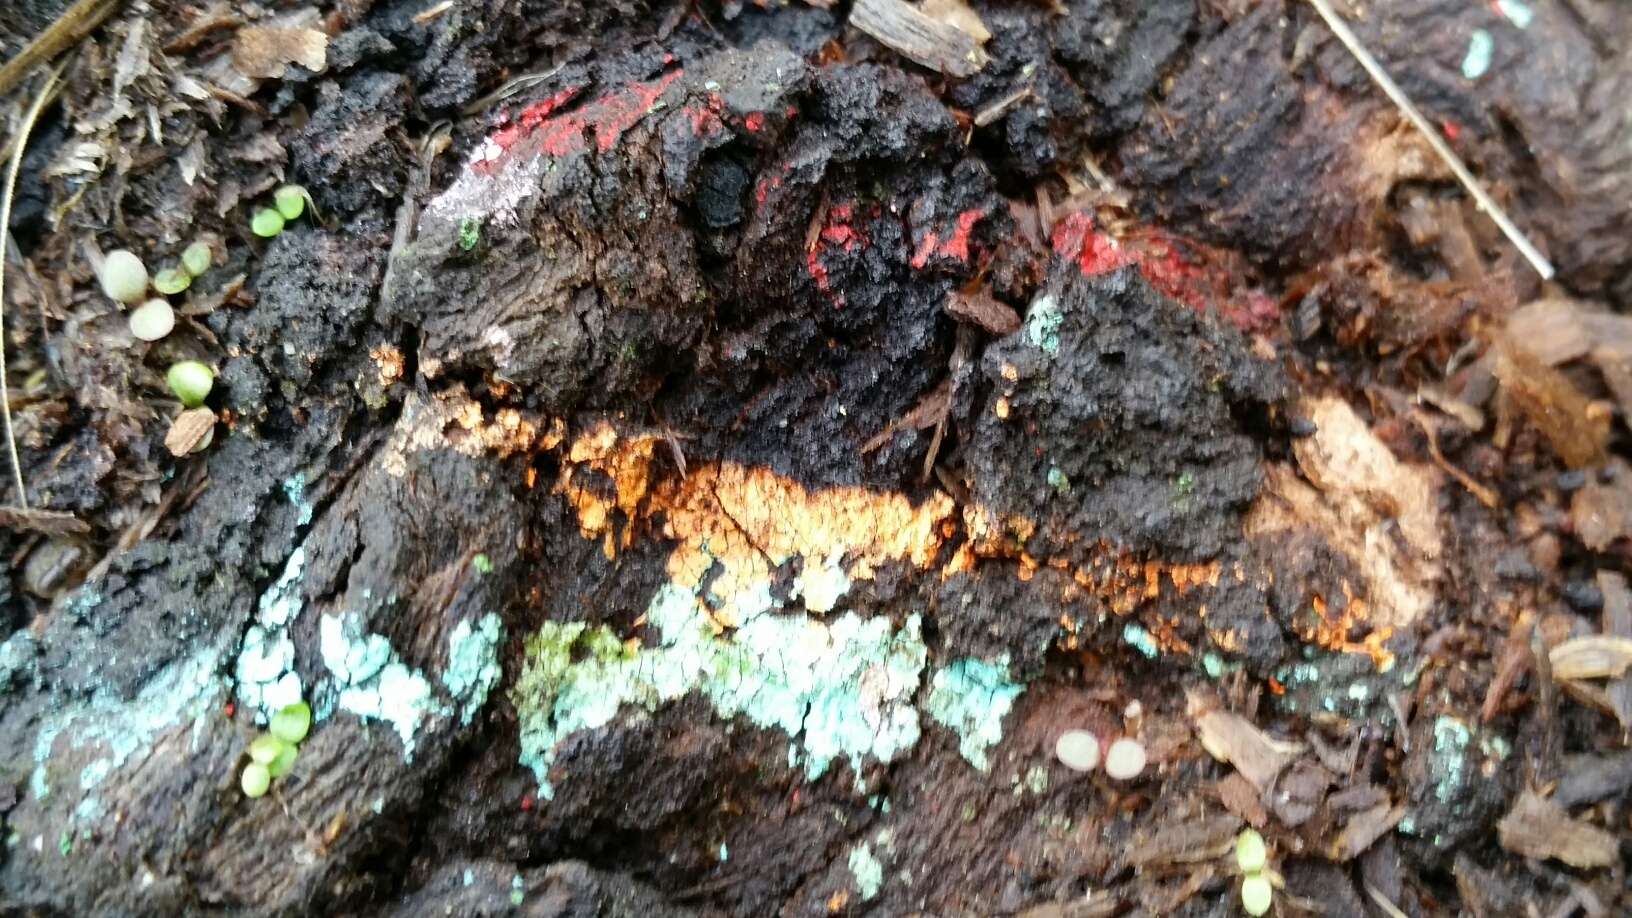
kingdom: Fungi
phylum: Ascomycota
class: Sordariomycetes
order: Hypocreales
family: Hypocreaceae
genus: Trichoderma
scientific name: Trichoderma viride
